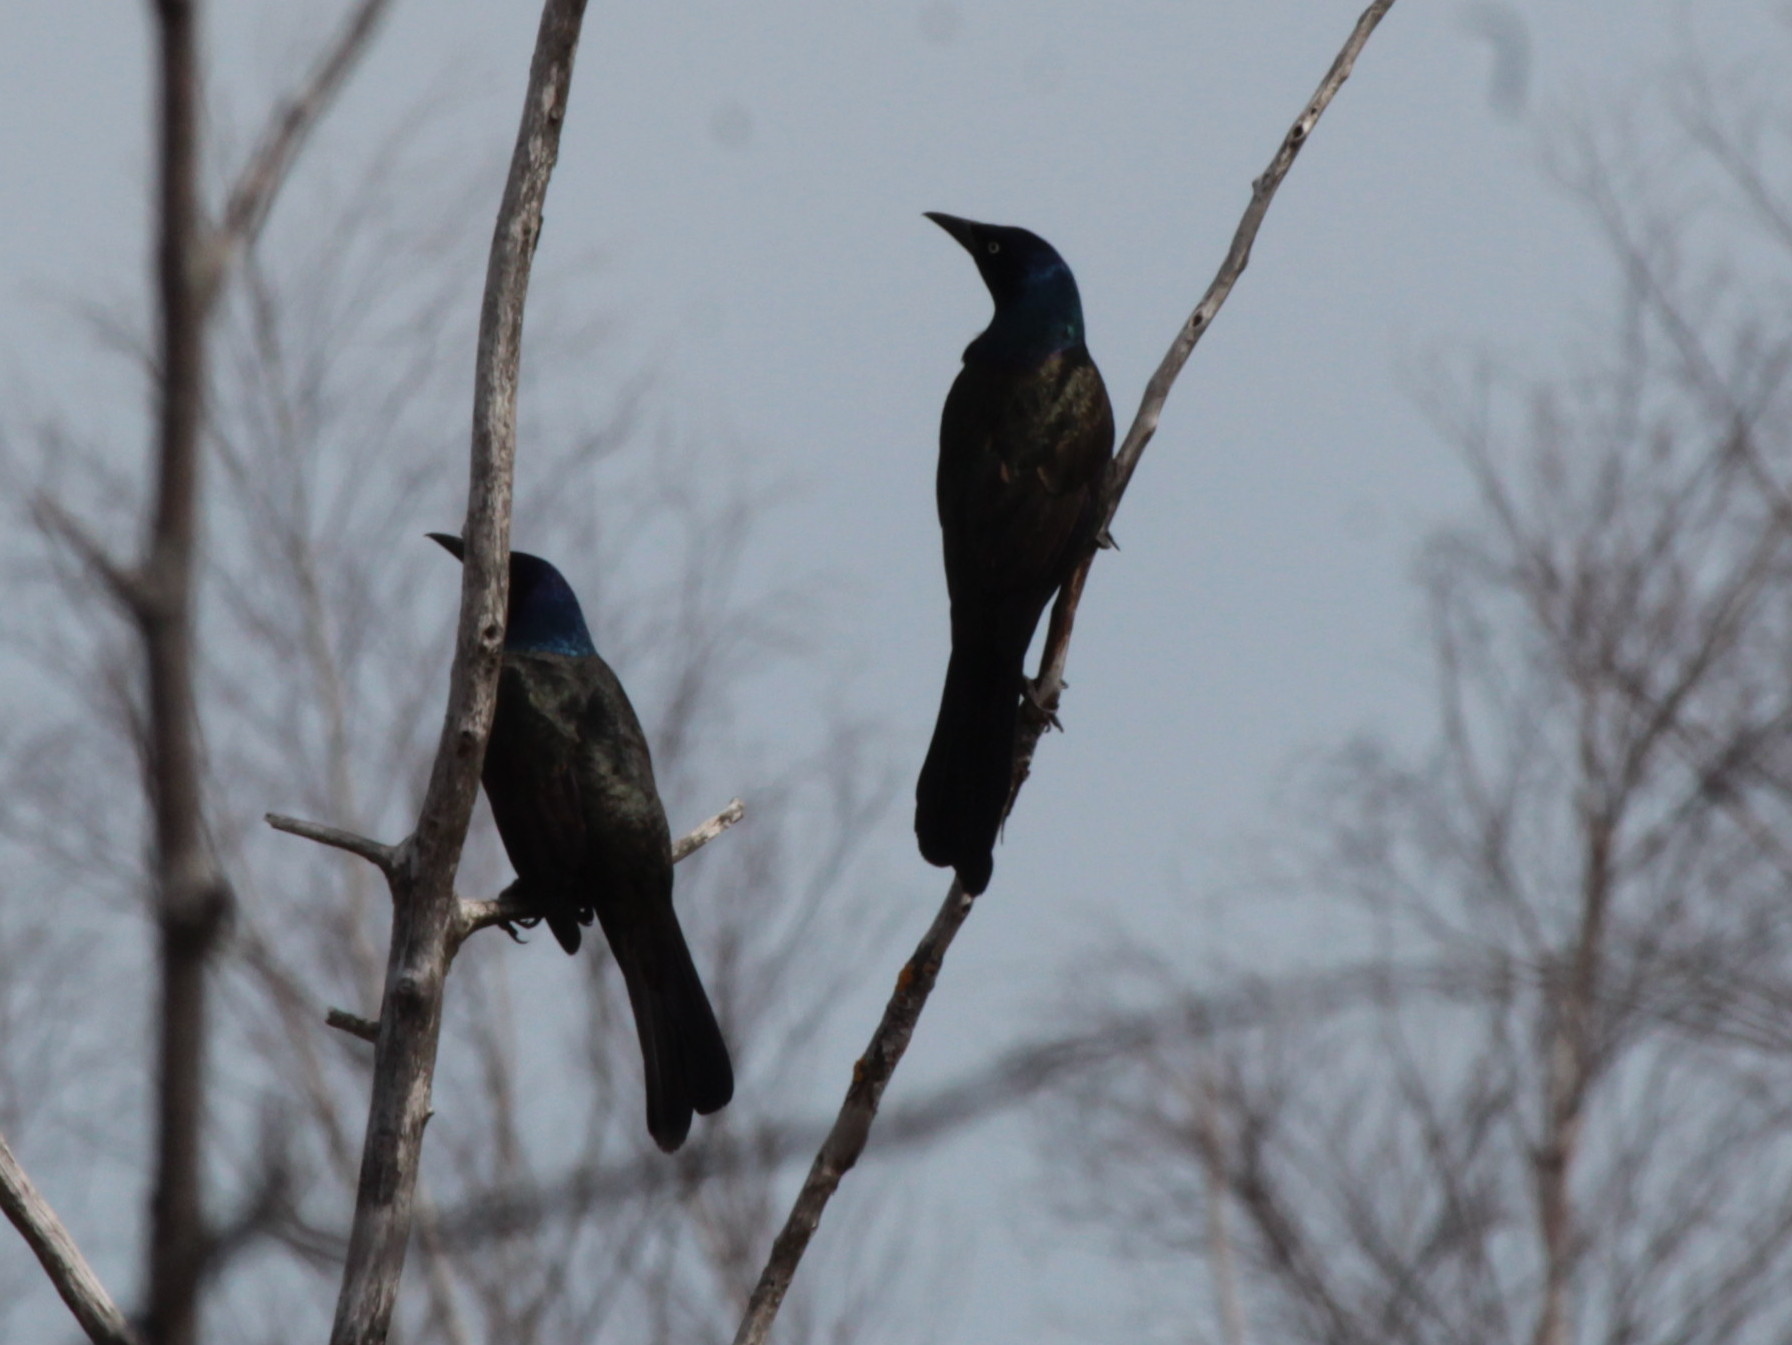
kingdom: Animalia
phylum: Chordata
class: Aves
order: Passeriformes
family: Icteridae
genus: Quiscalus
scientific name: Quiscalus quiscula
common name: Common grackle
